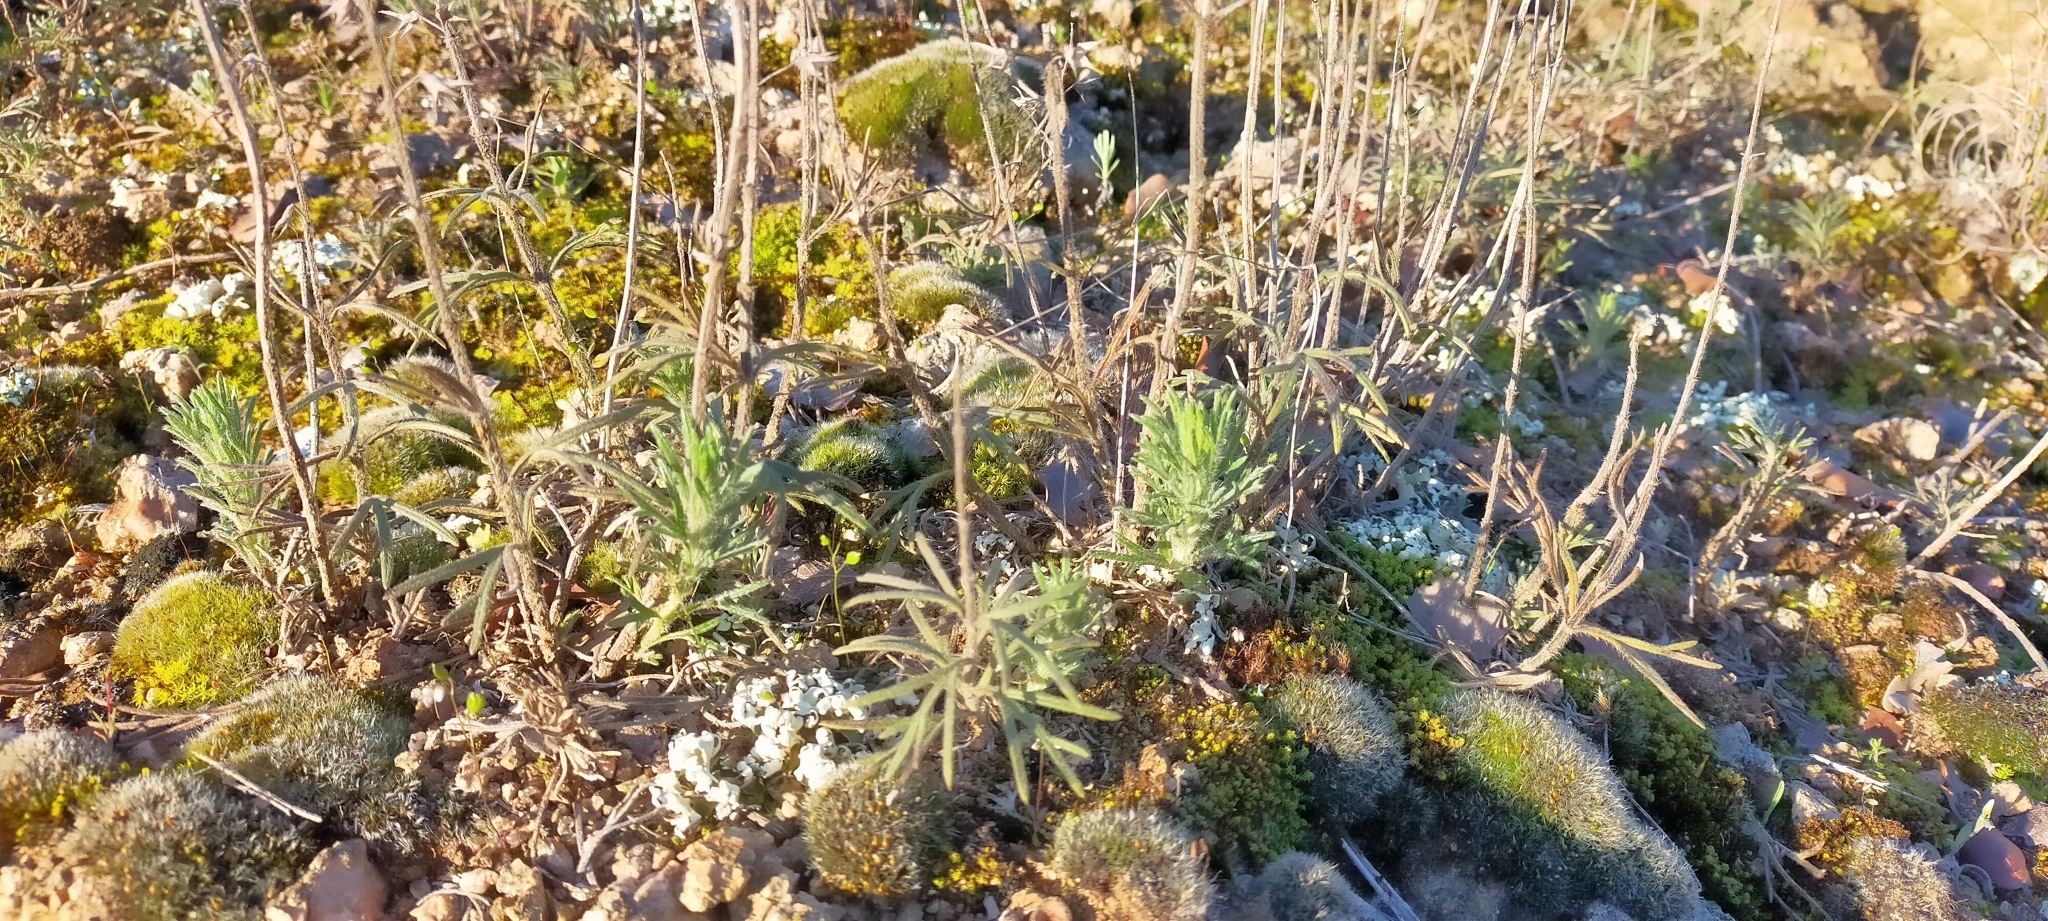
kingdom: Plantae
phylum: Tracheophyta
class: Magnoliopsida
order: Lamiales
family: Lamiaceae
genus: Teucrium
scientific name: Teucrium pseudochamaepitys
